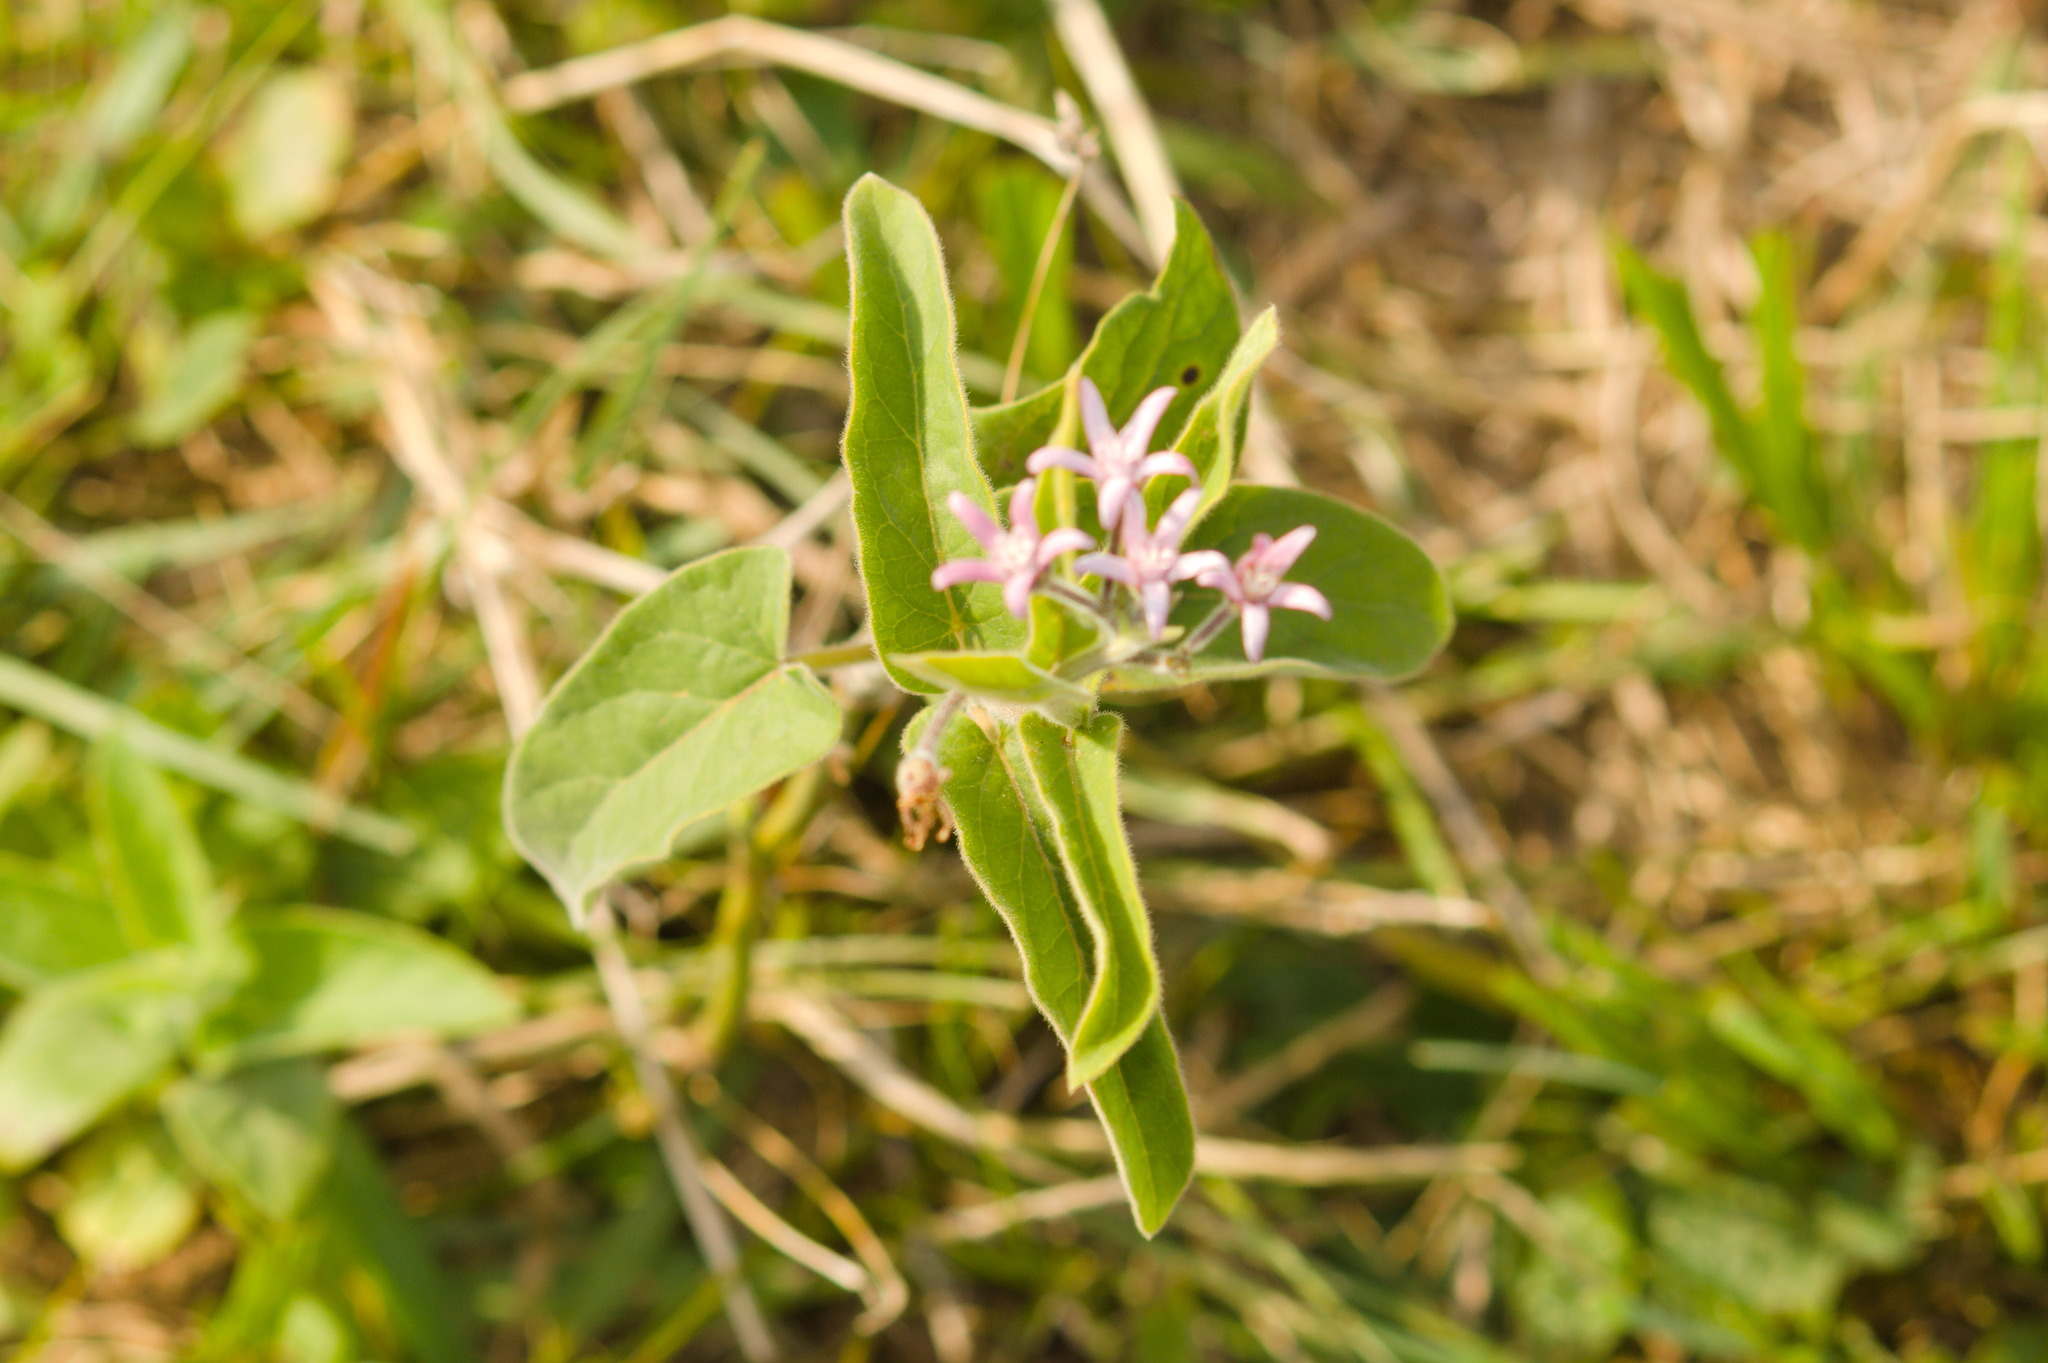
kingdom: Plantae
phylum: Tracheophyta
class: Magnoliopsida
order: Gentianales
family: Apocynaceae
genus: Oxypetalum
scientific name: Oxypetalum solanoides
